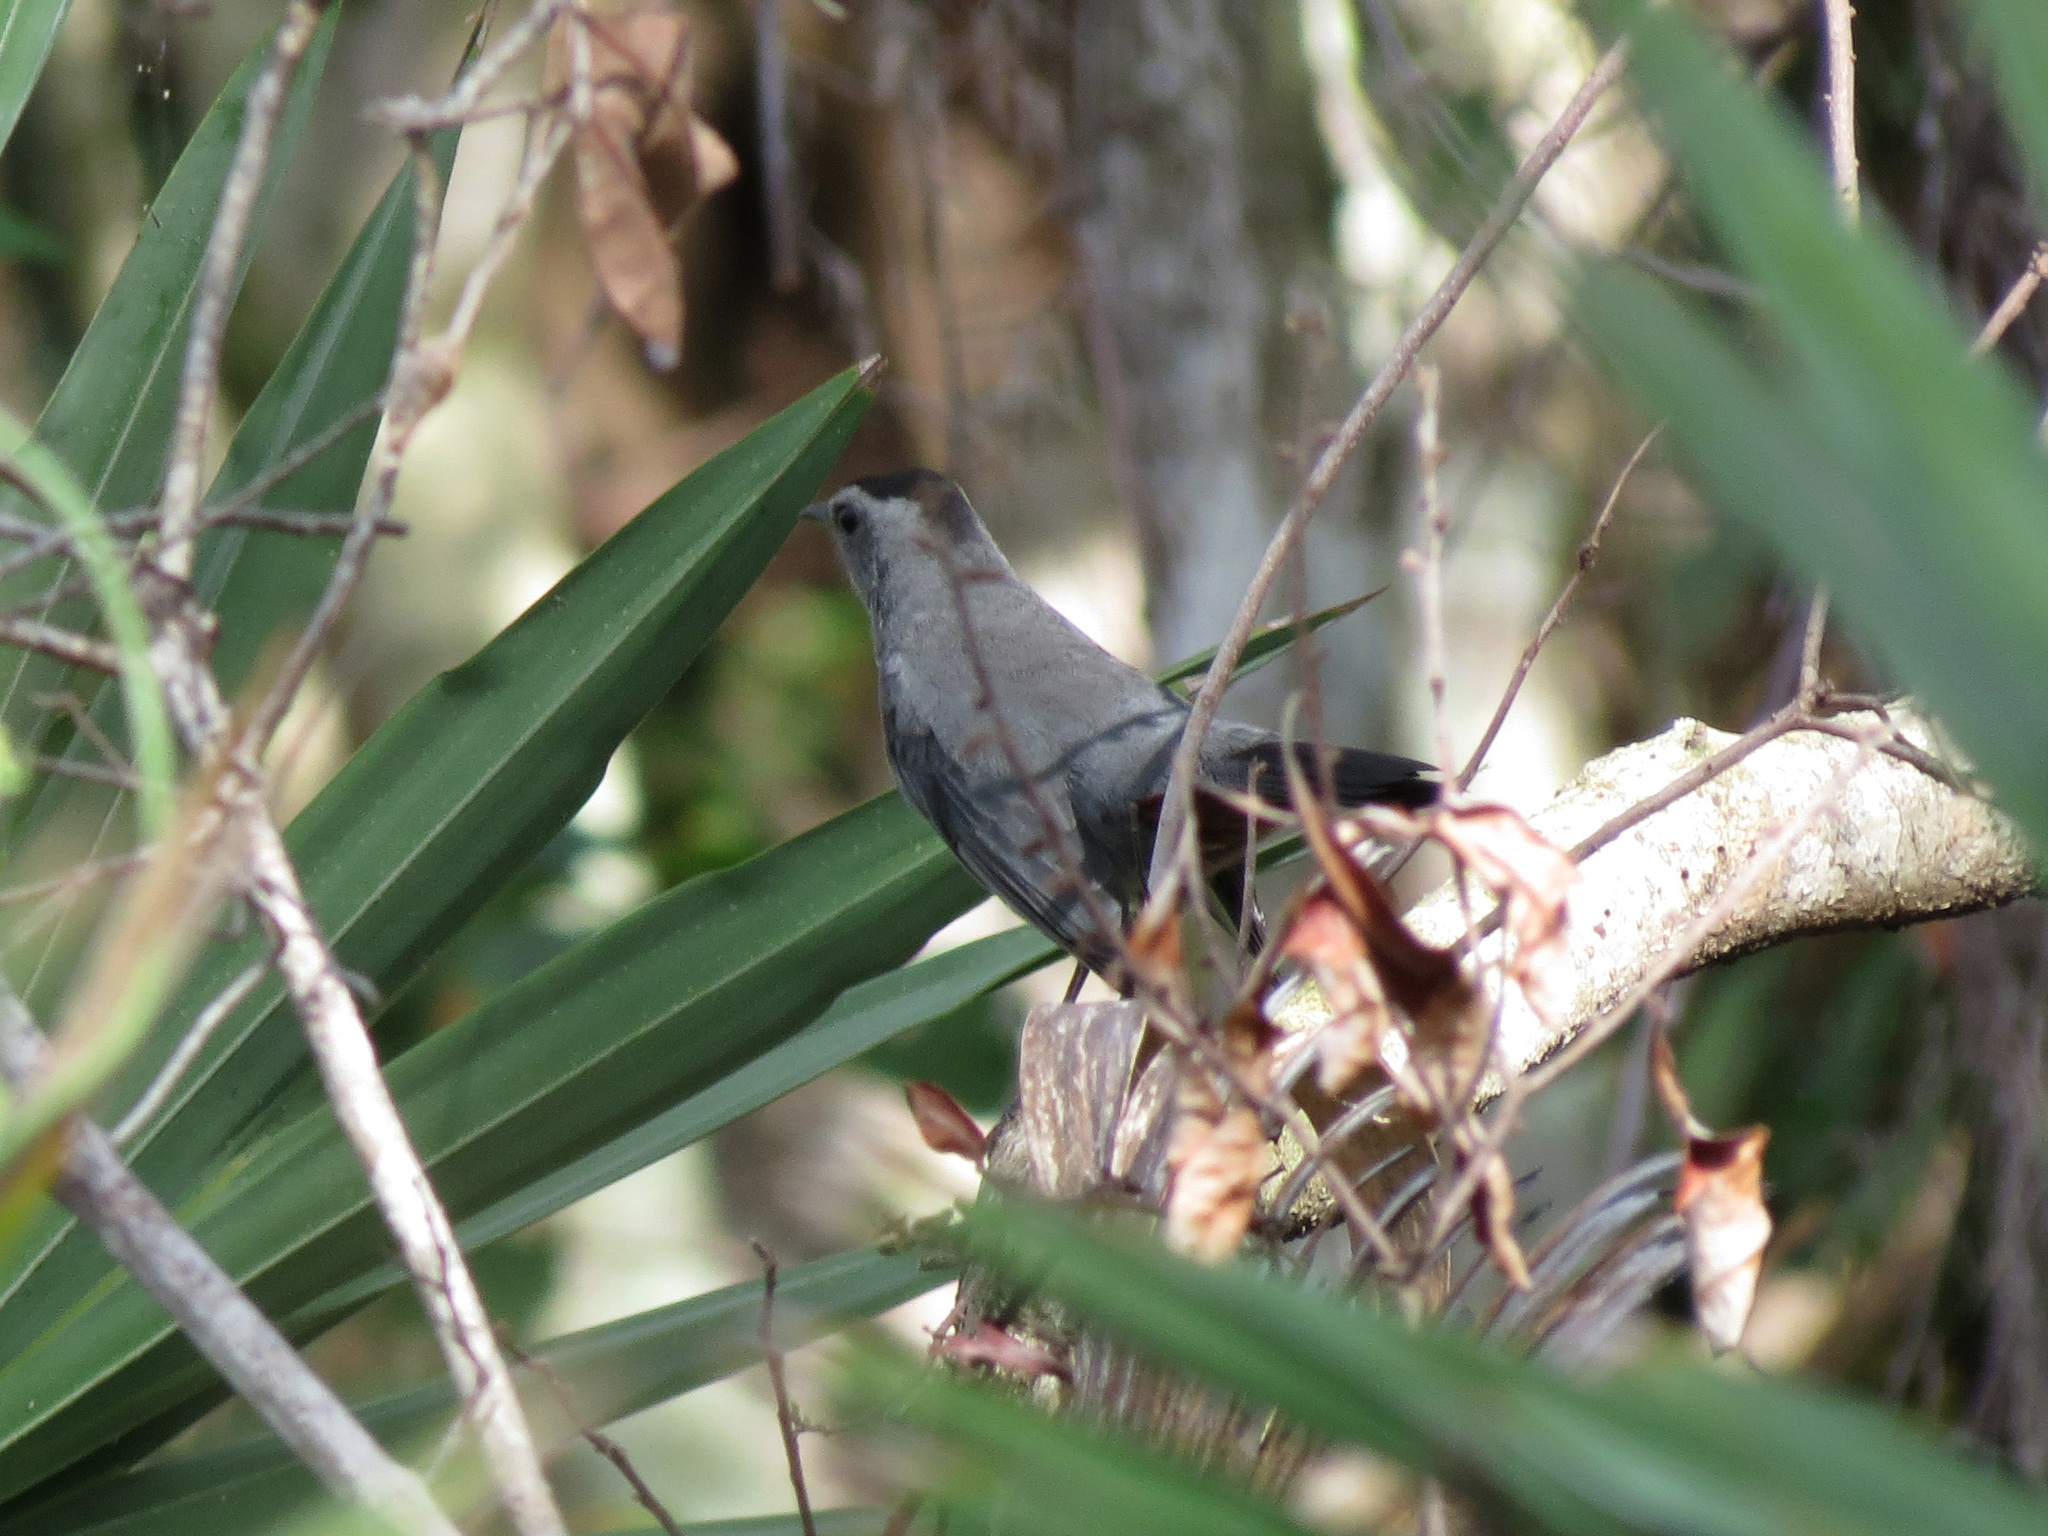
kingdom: Animalia
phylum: Chordata
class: Aves
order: Passeriformes
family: Mimidae
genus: Dumetella
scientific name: Dumetella carolinensis
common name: Gray catbird
